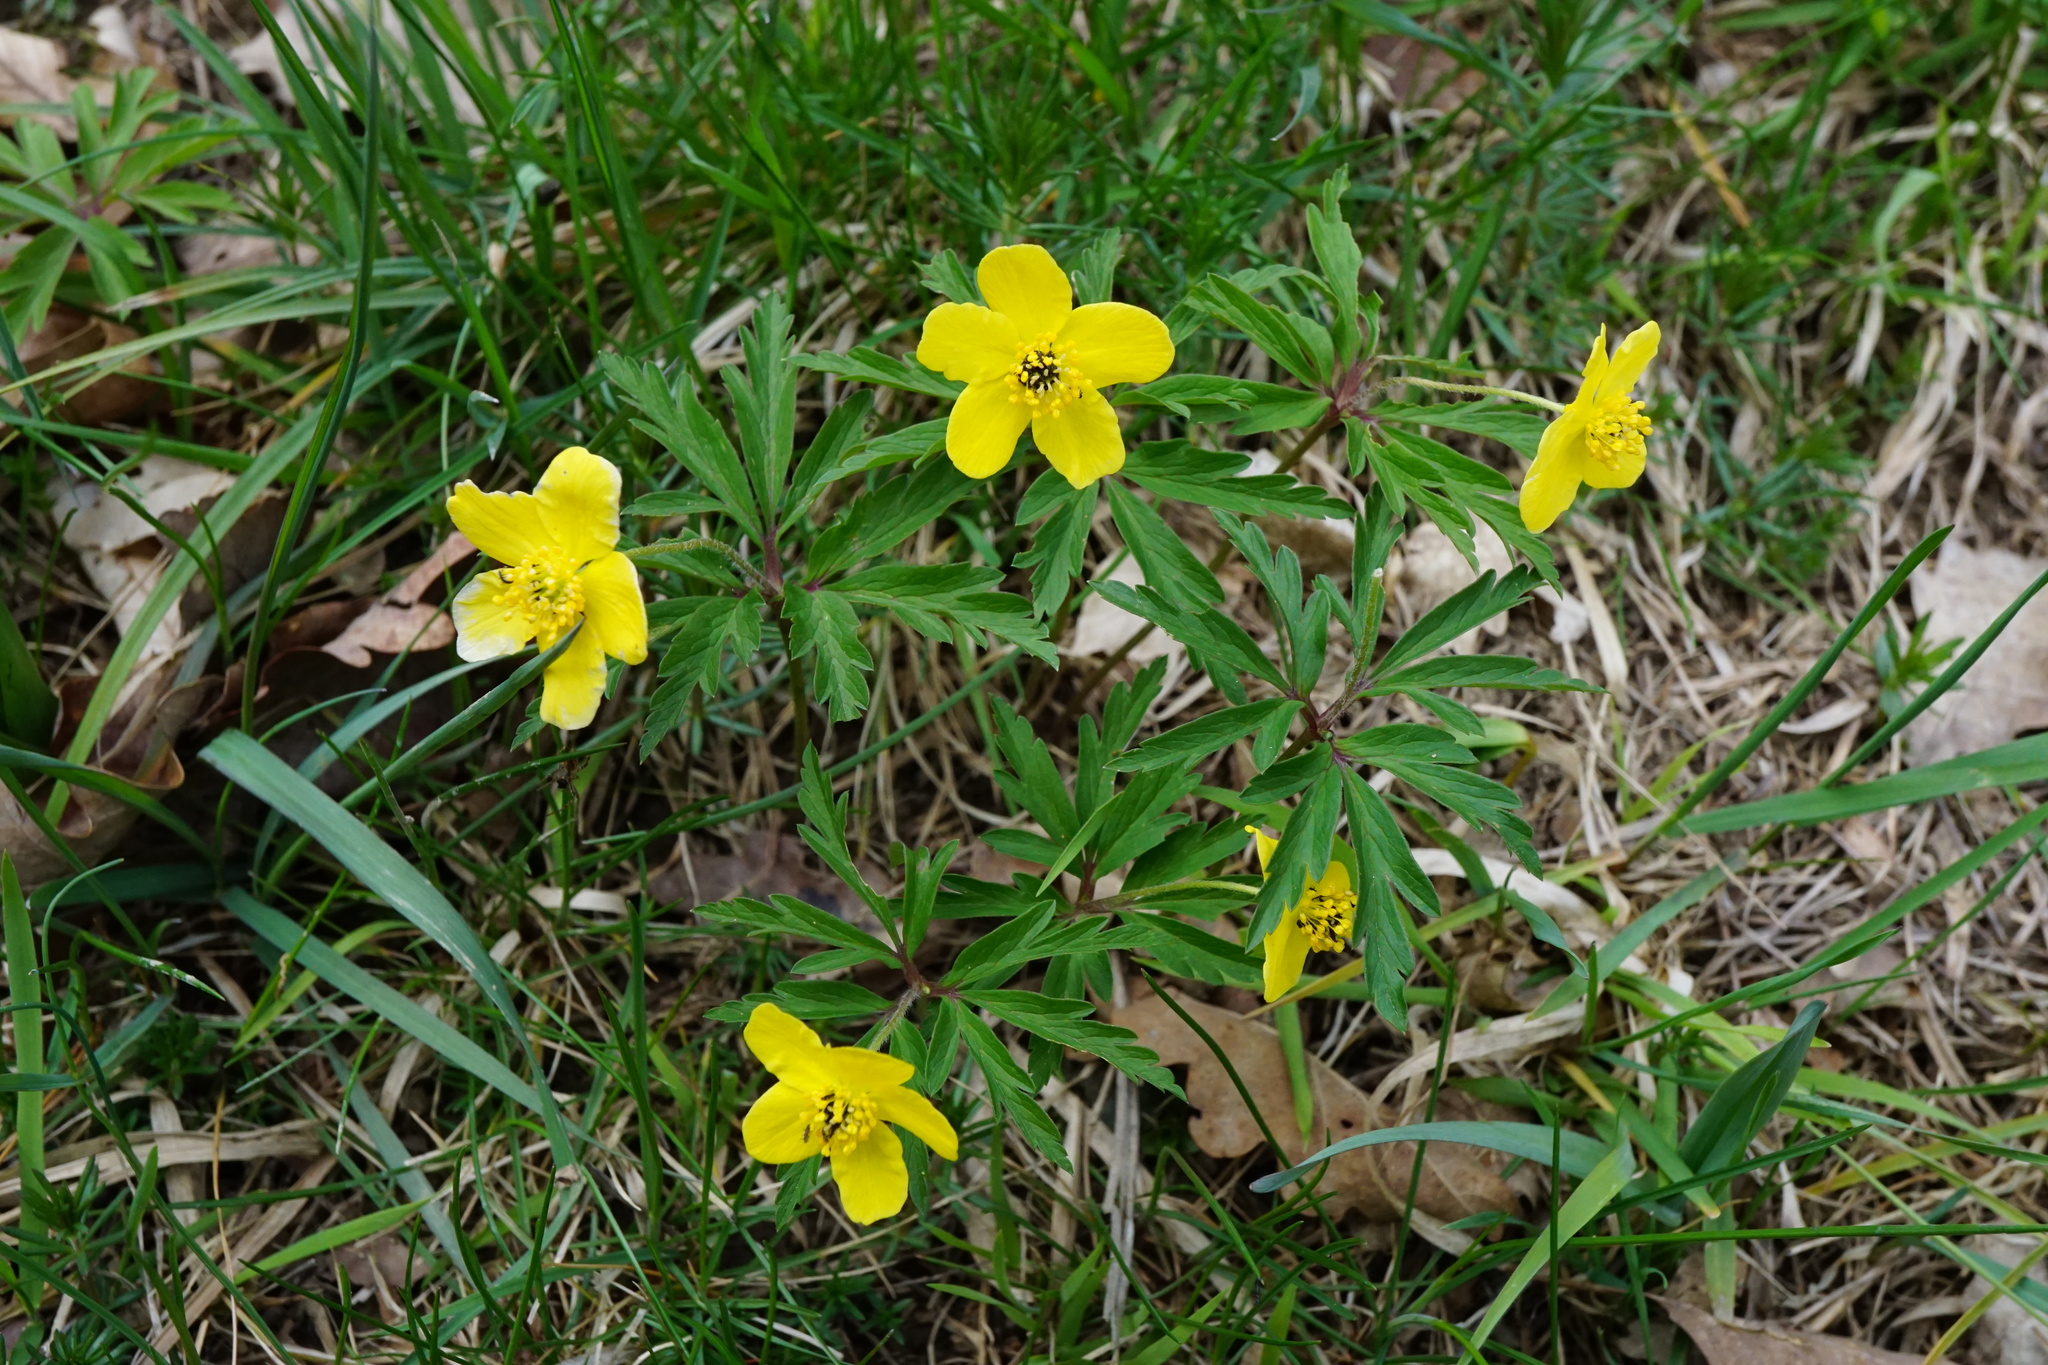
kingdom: Plantae
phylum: Tracheophyta
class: Magnoliopsida
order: Ranunculales
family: Ranunculaceae
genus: Anemone
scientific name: Anemone ranunculoides
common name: Yellow anemone
